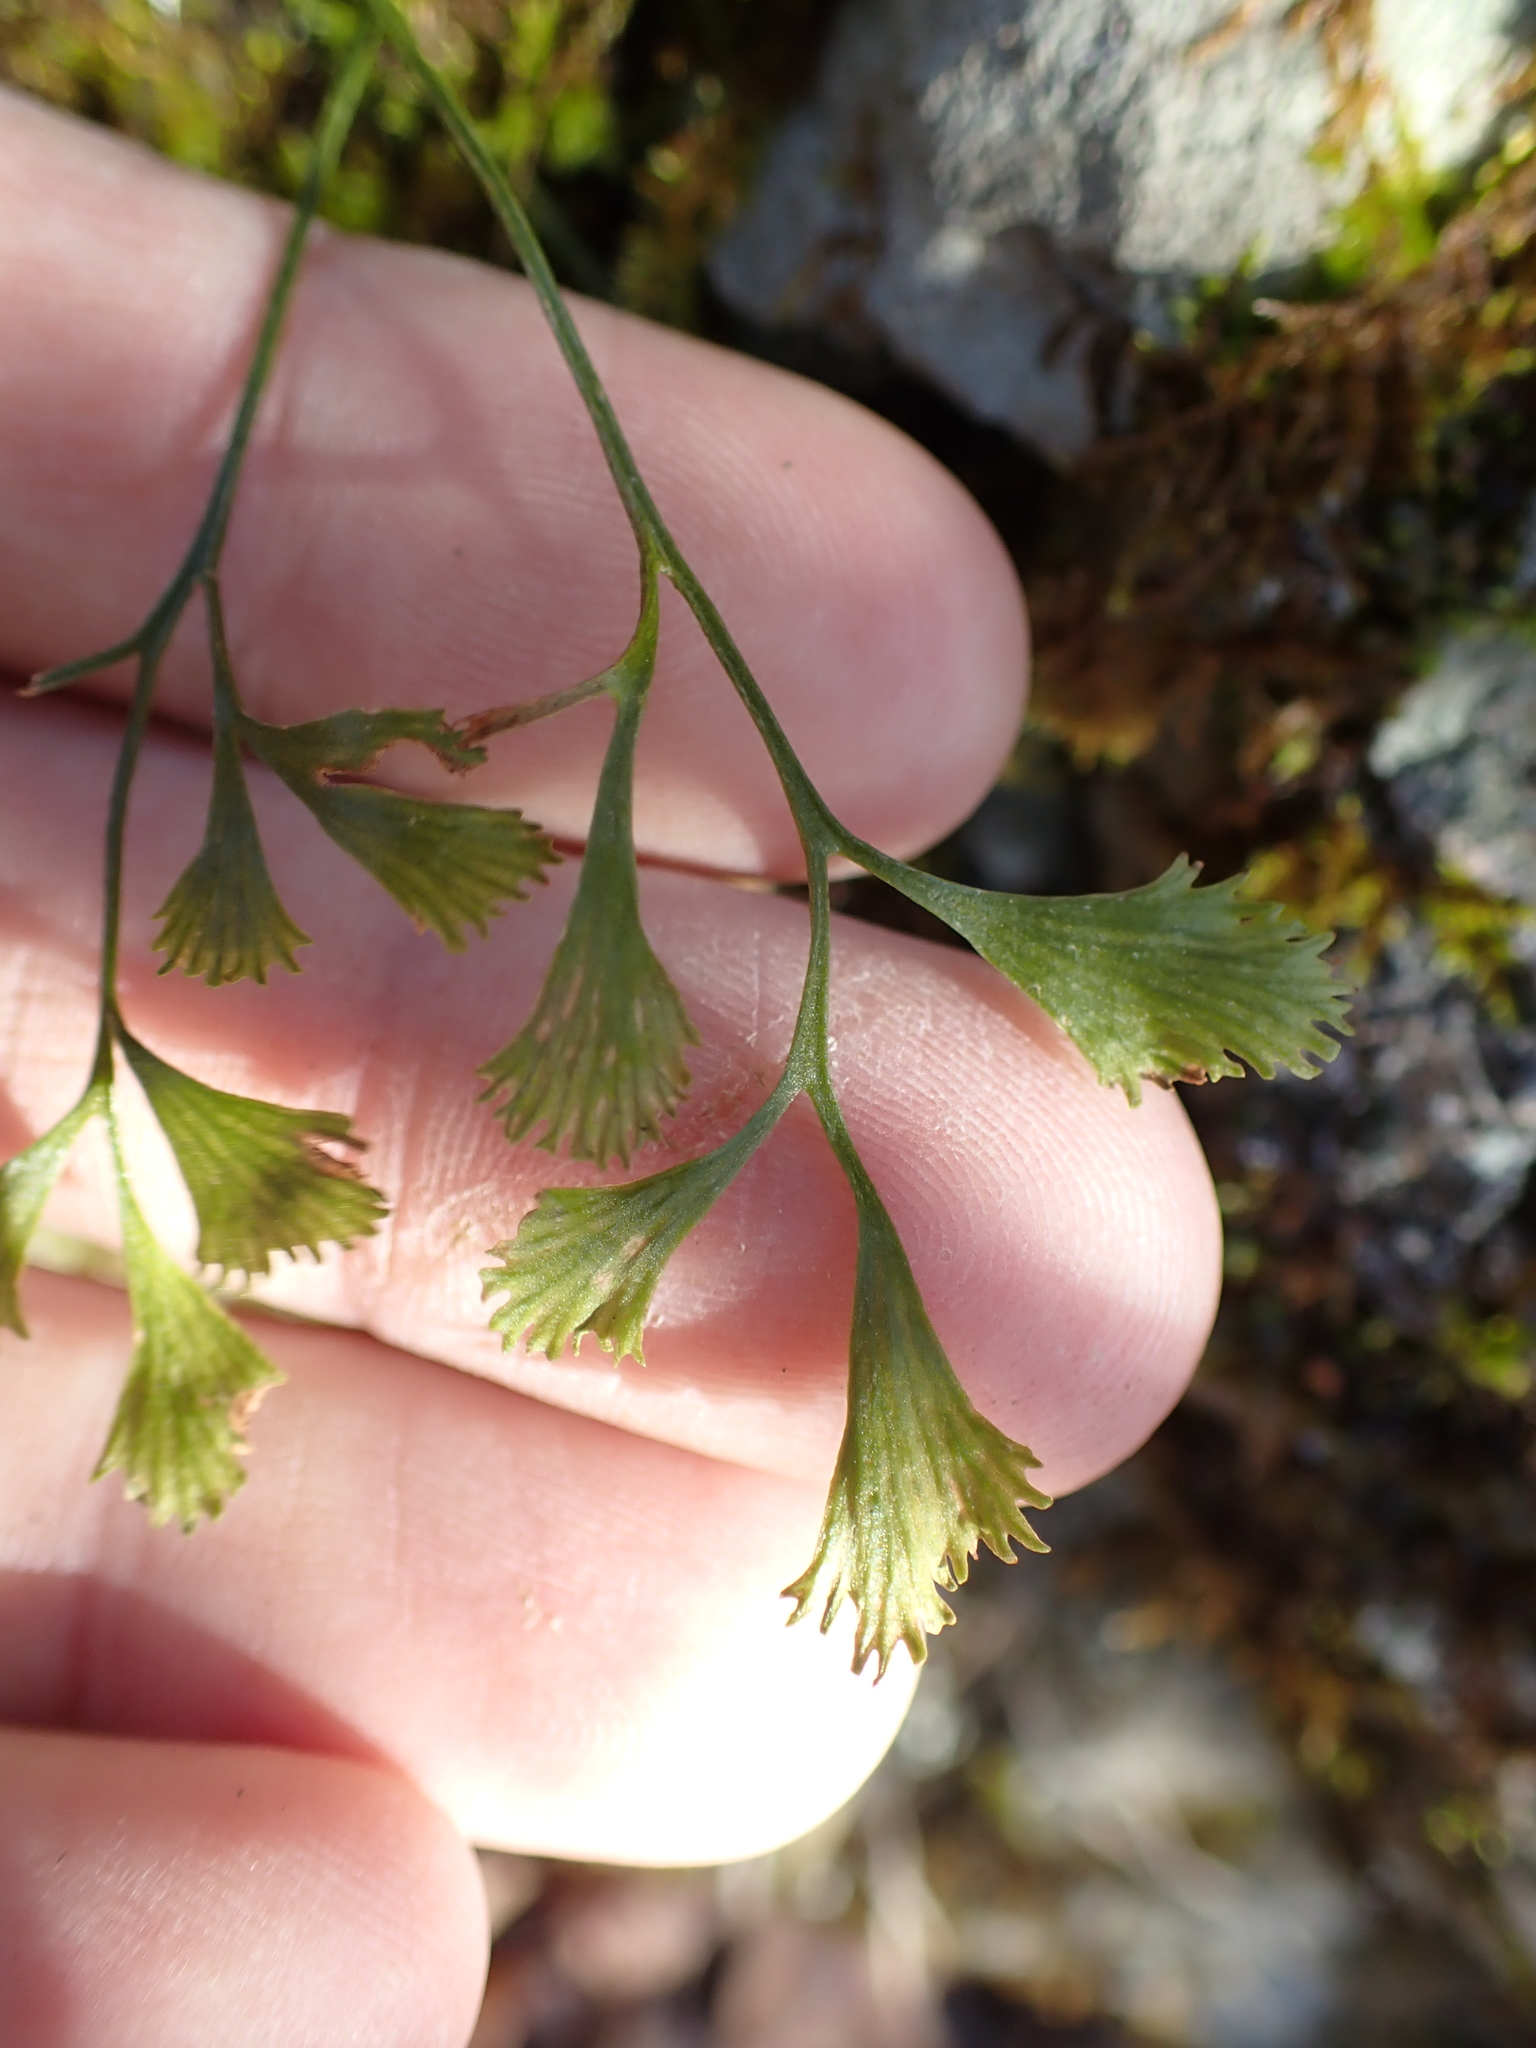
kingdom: Plantae
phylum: Tracheophyta
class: Polypodiopsida
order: Polypodiales
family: Aspleniaceae
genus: Asplenium
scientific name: Asplenium ruta-muraria
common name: Wall-rue
